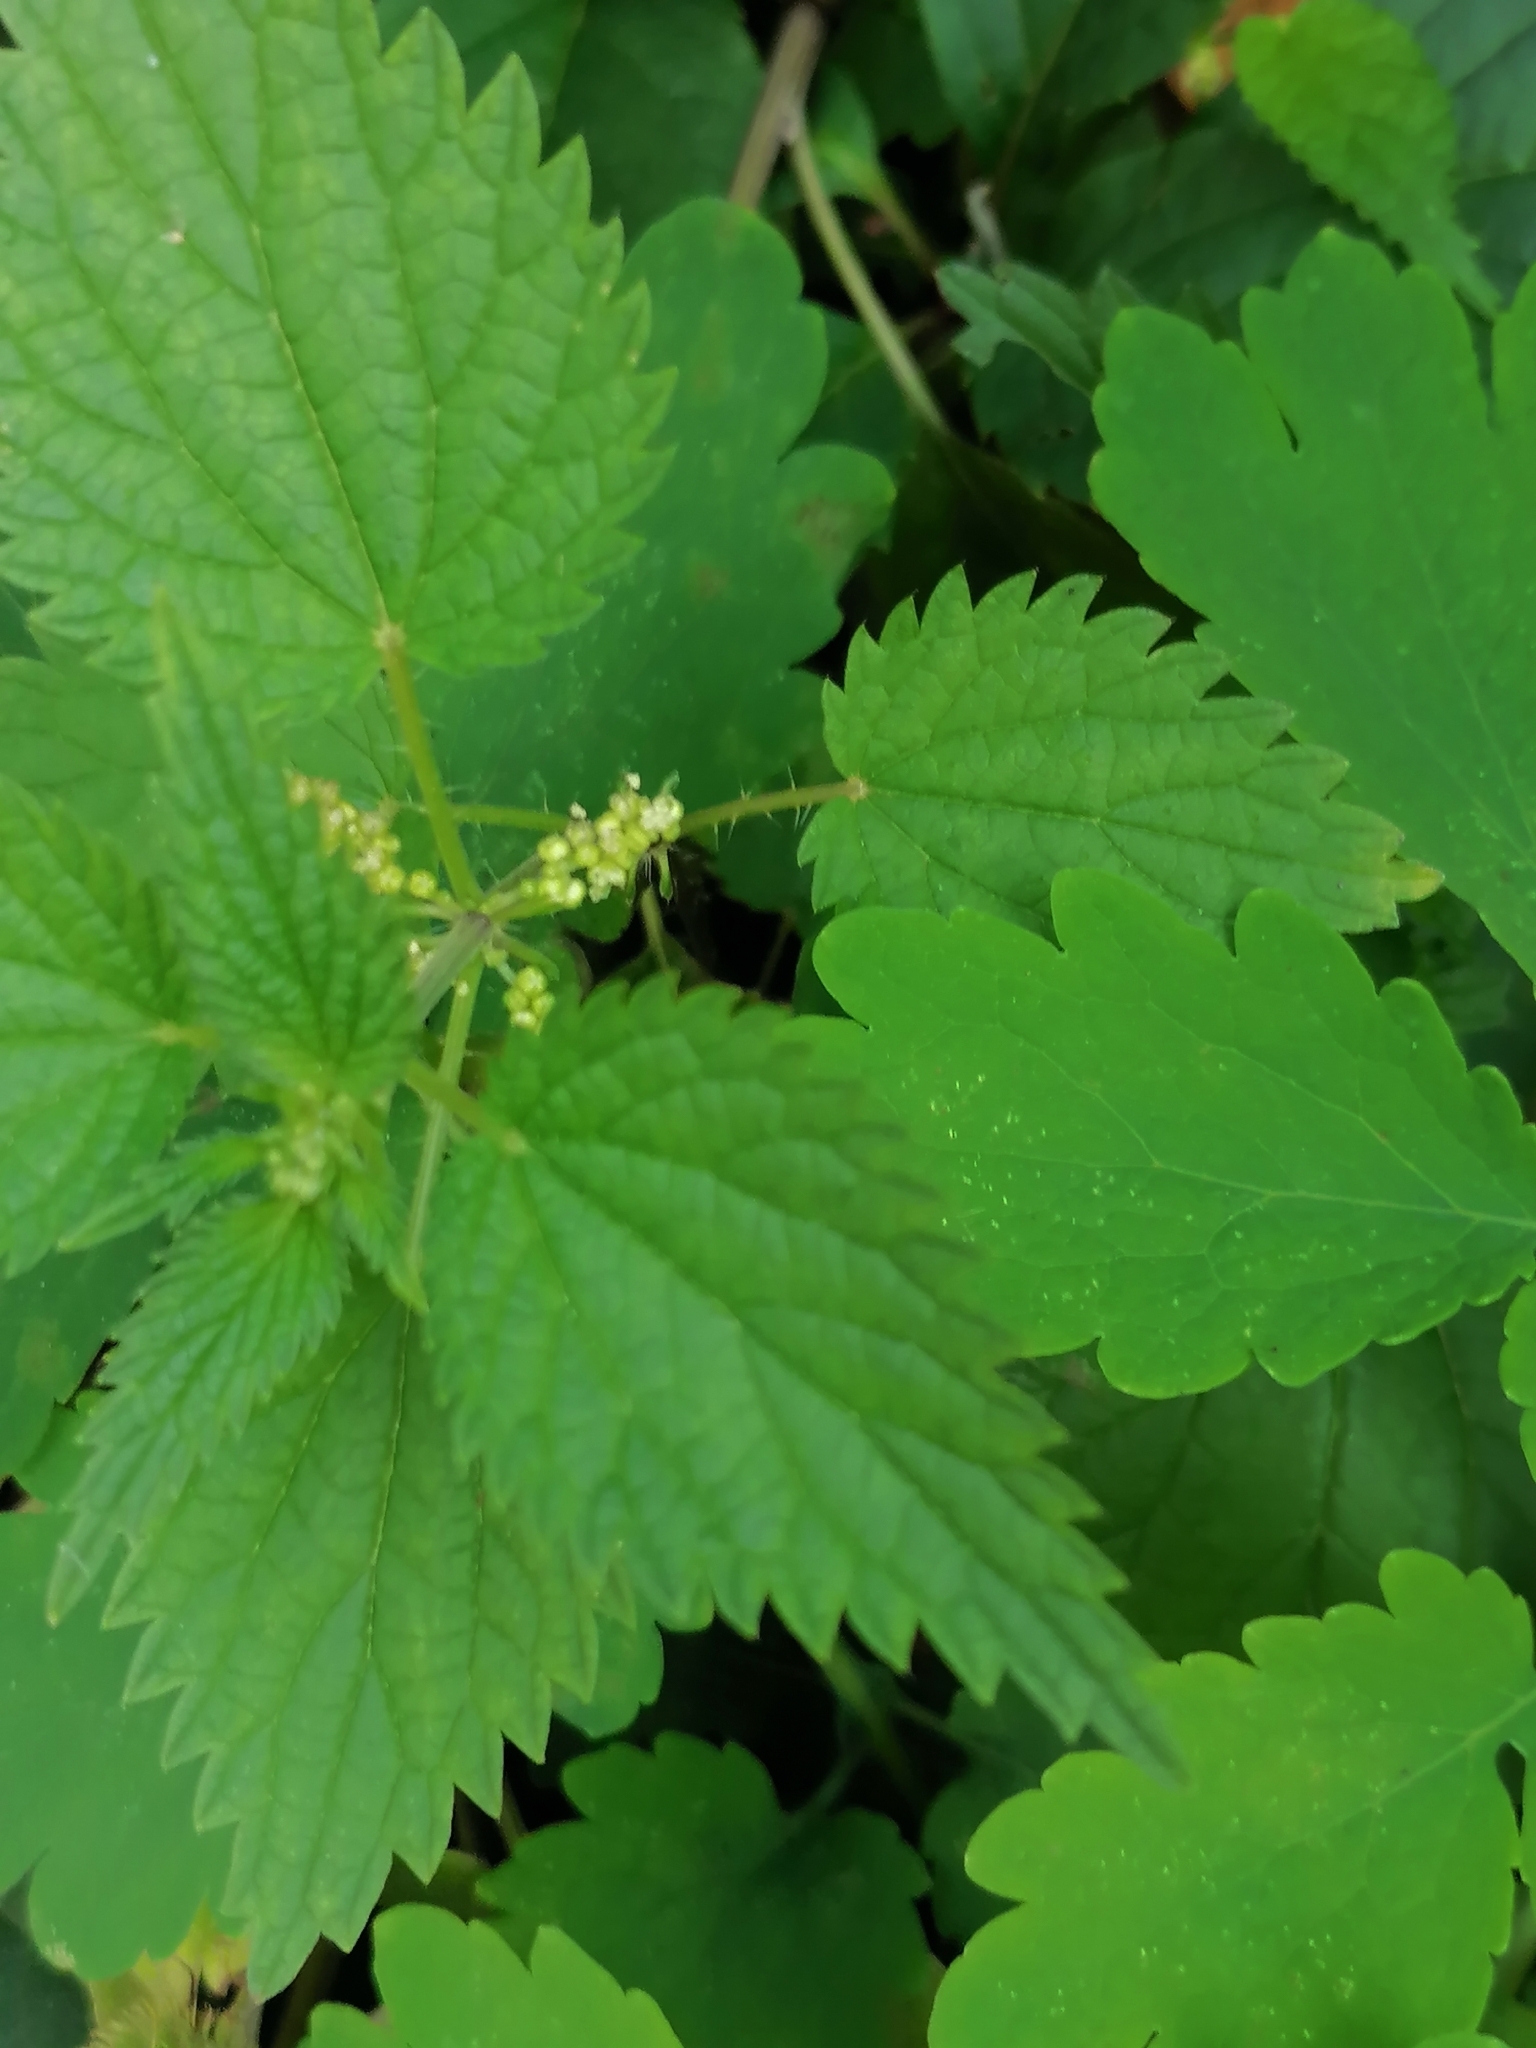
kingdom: Plantae
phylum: Tracheophyta
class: Magnoliopsida
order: Rosales
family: Urticaceae
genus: Urtica
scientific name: Urtica dioica
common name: Common nettle
